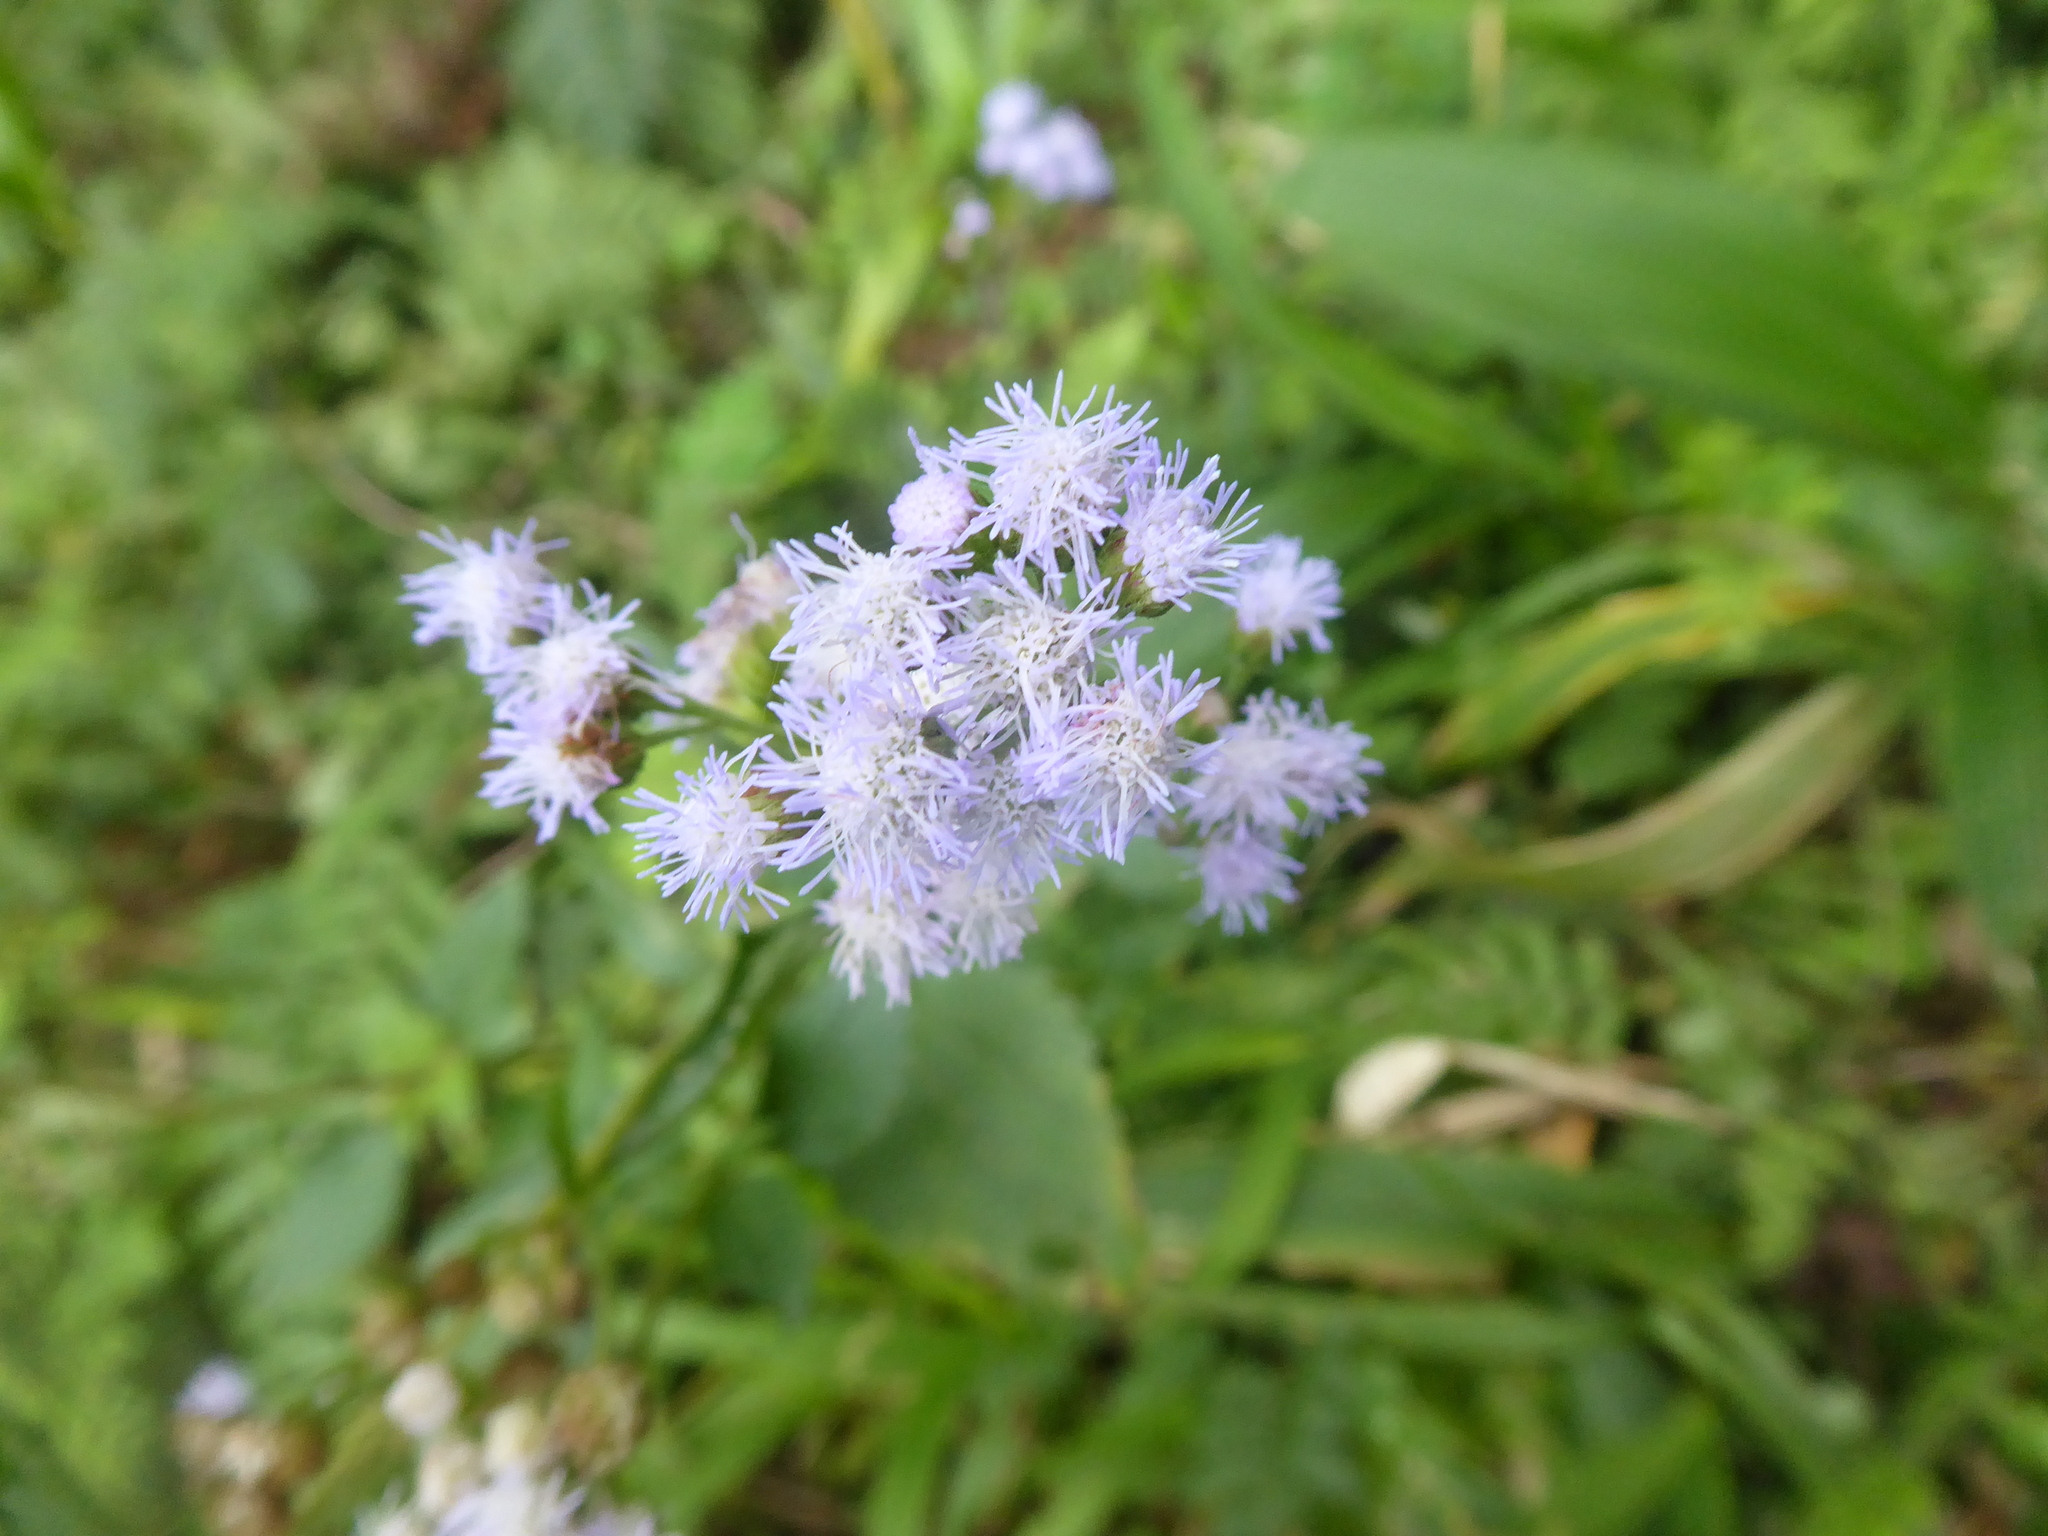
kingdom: Plantae
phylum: Tracheophyta
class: Magnoliopsida
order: Asterales
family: Asteraceae
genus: Ageratum
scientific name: Ageratum houstonianum
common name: Bluemink
